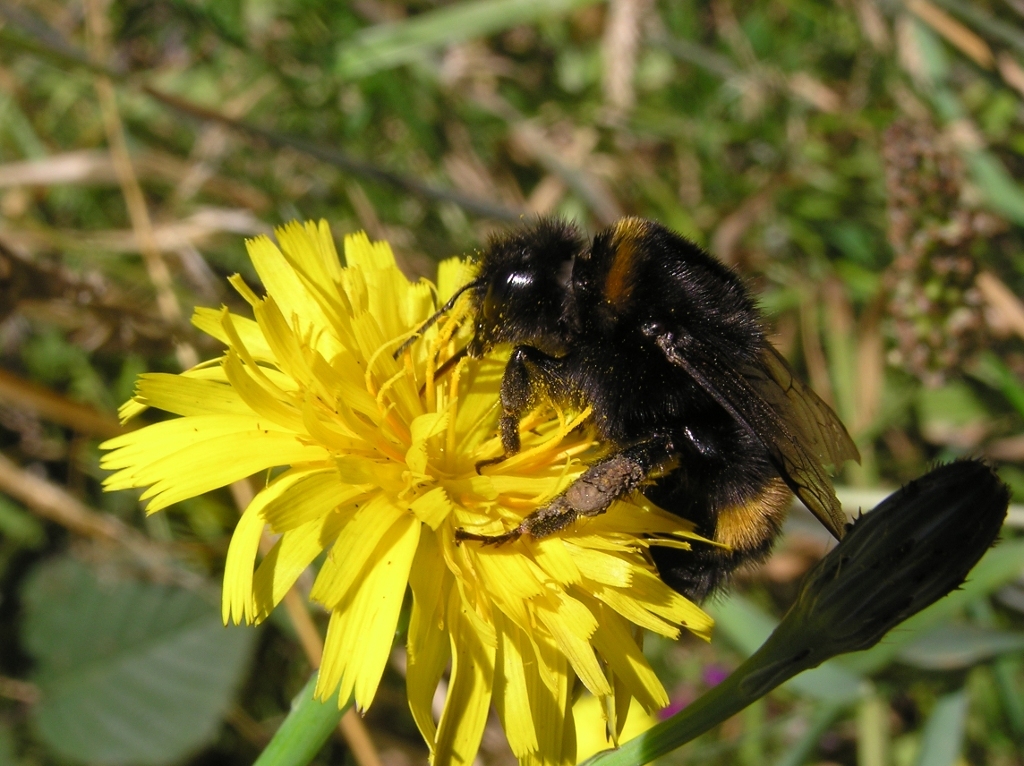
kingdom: Animalia
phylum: Arthropoda
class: Insecta
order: Hymenoptera
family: Apidae
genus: Bombus
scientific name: Bombus terrestris
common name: Buff-tailed bumblebee
